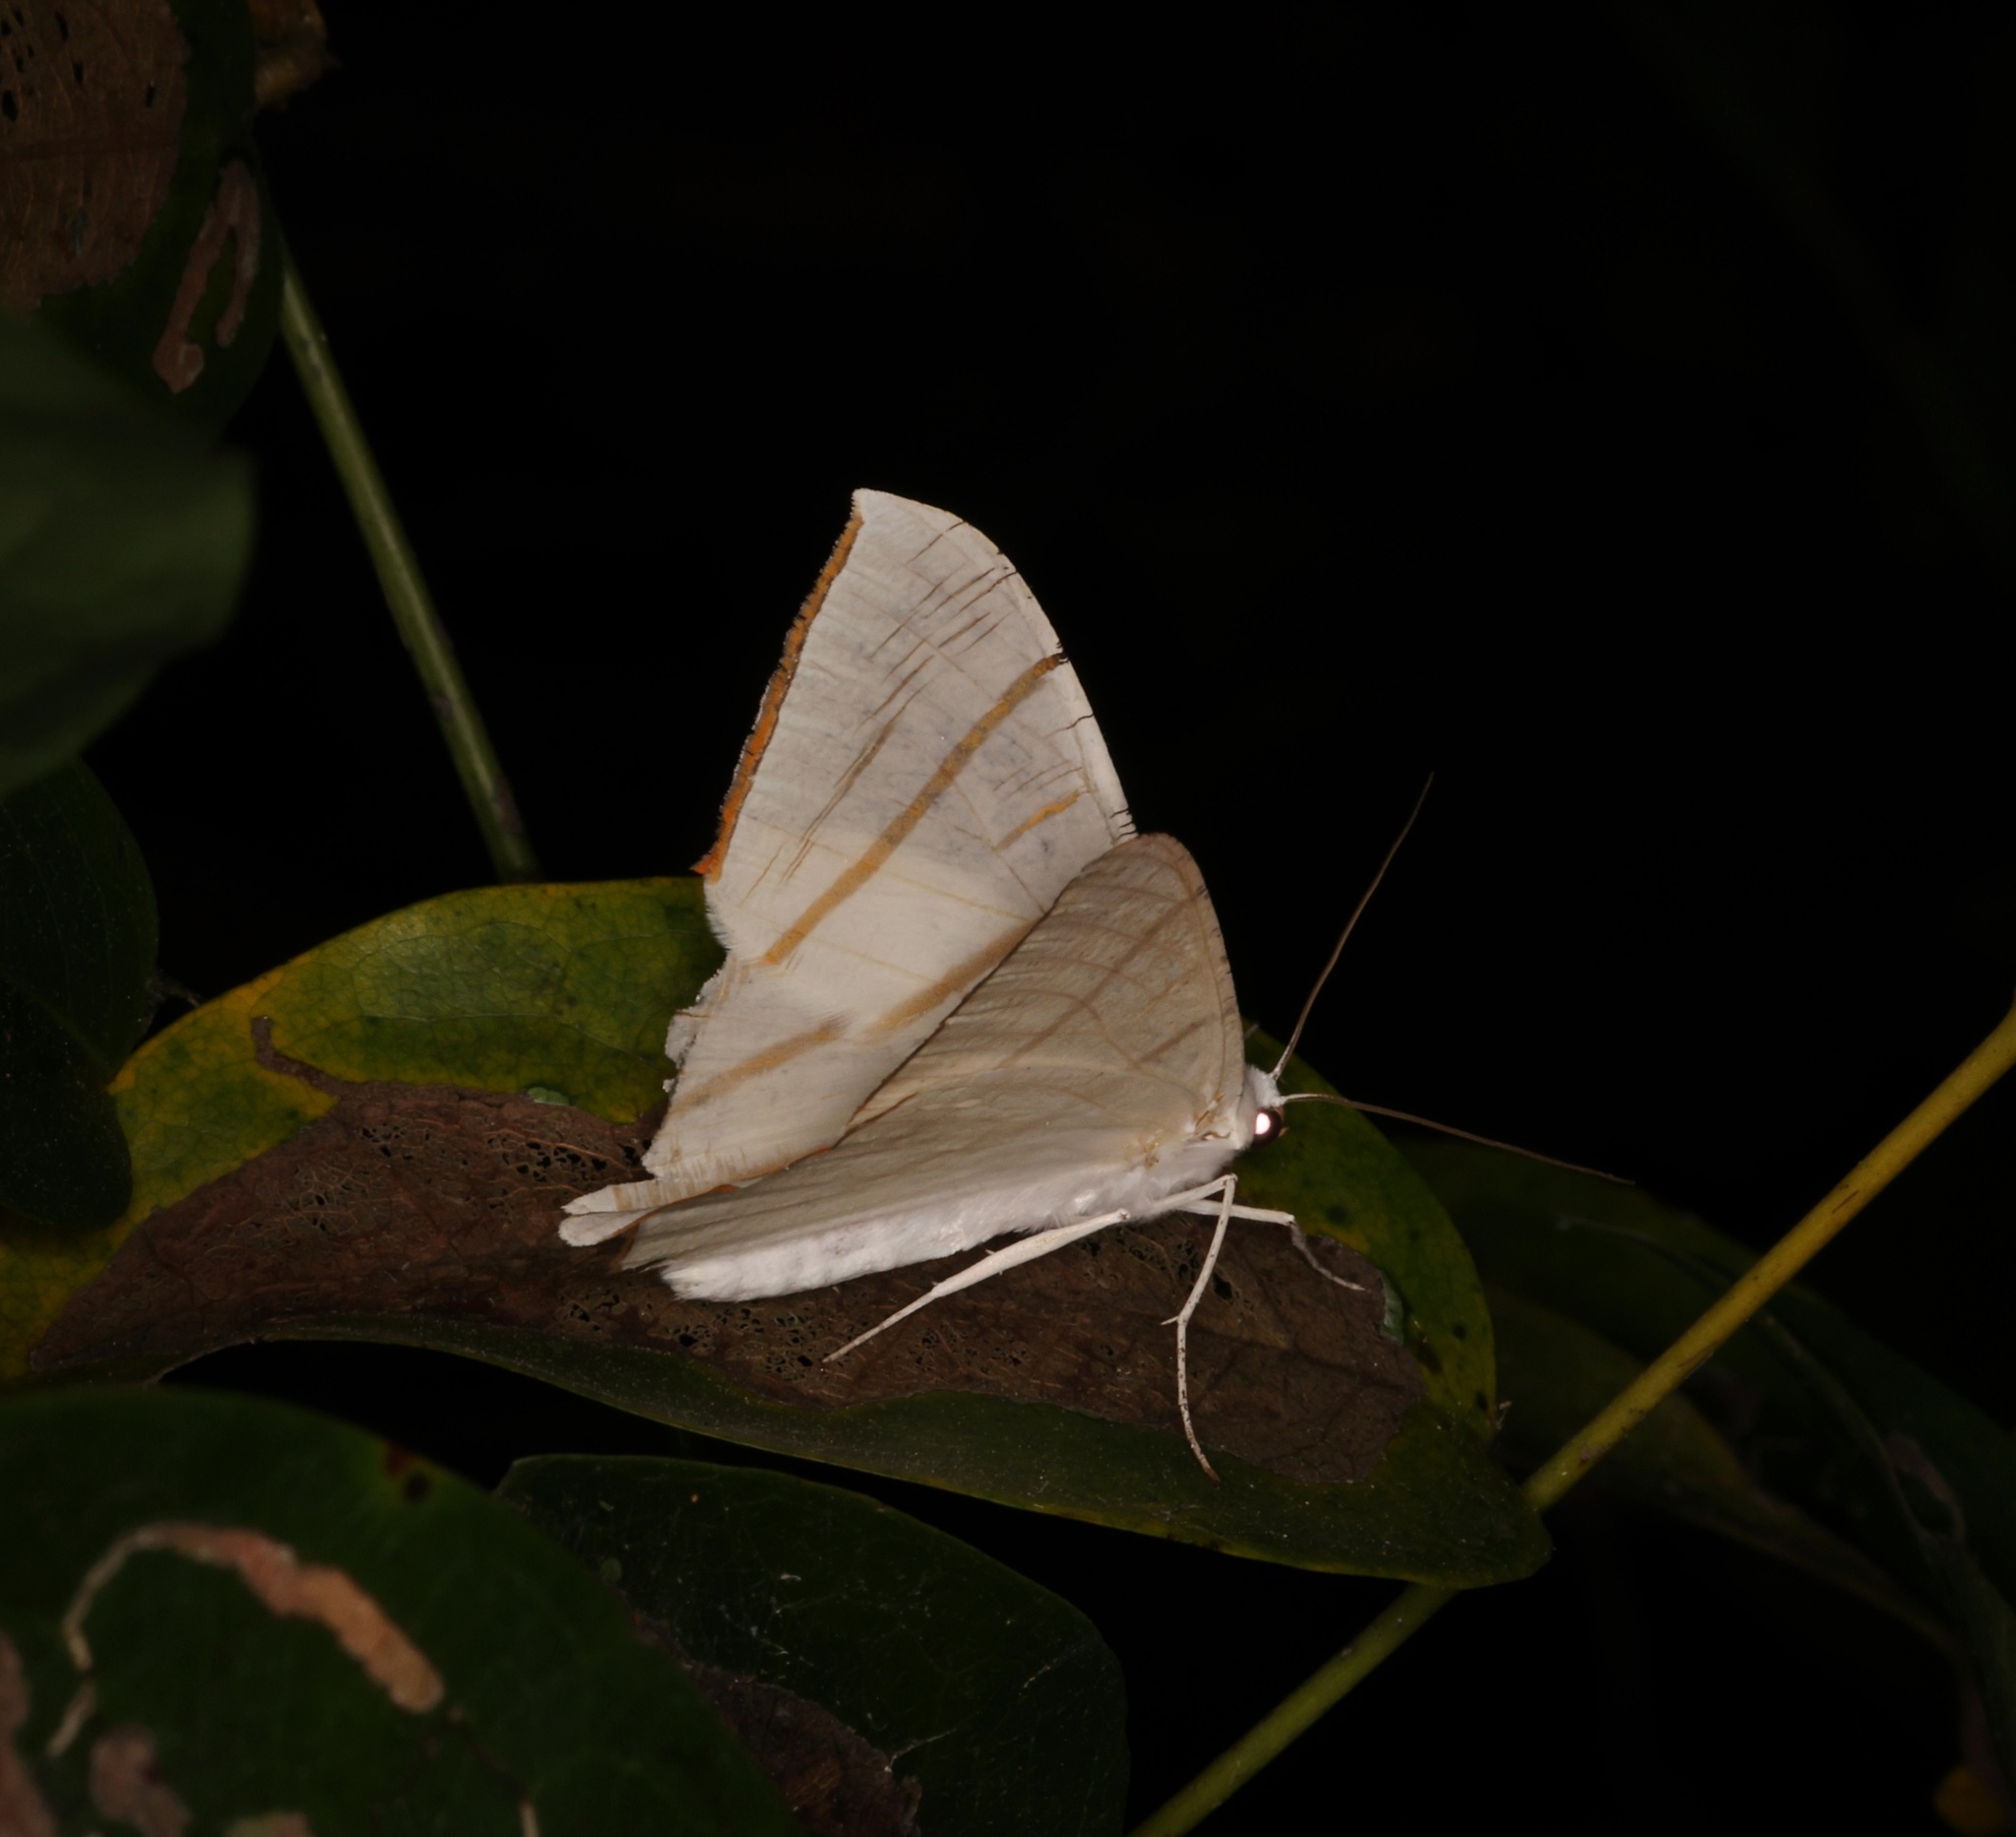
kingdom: Animalia
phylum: Arthropoda
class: Insecta
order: Lepidoptera
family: Geometridae
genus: Ourapteryx
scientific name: Ourapteryx clara
